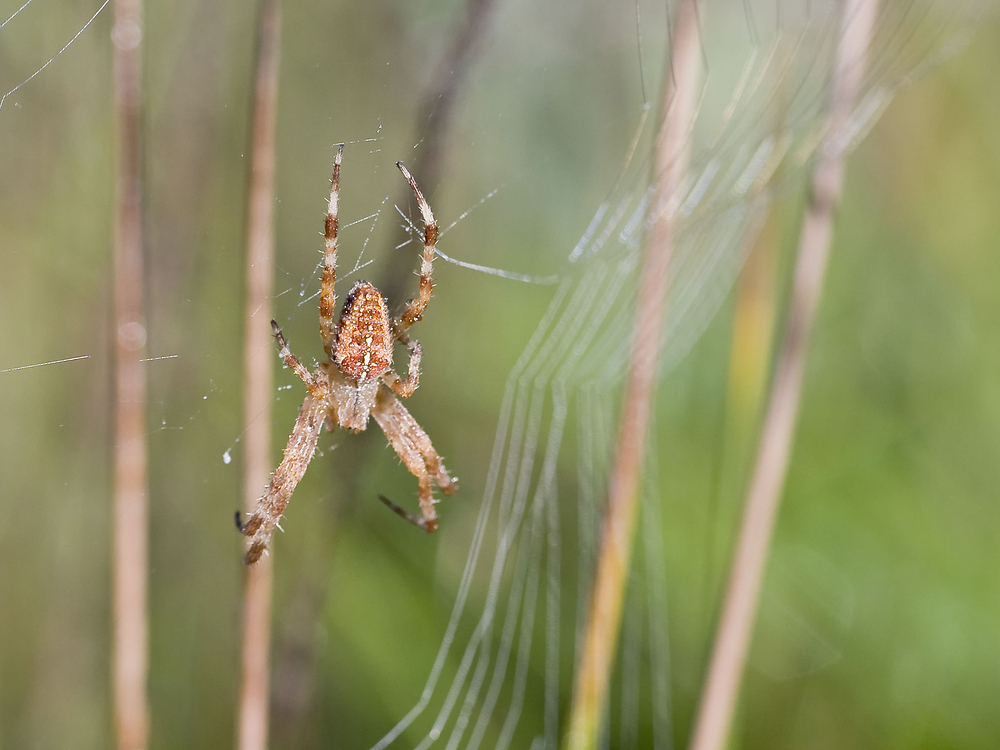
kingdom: Animalia
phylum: Arthropoda
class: Arachnida
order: Araneae
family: Araneidae
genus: Araneus
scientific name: Araneus diadematus
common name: Cross orbweaver
